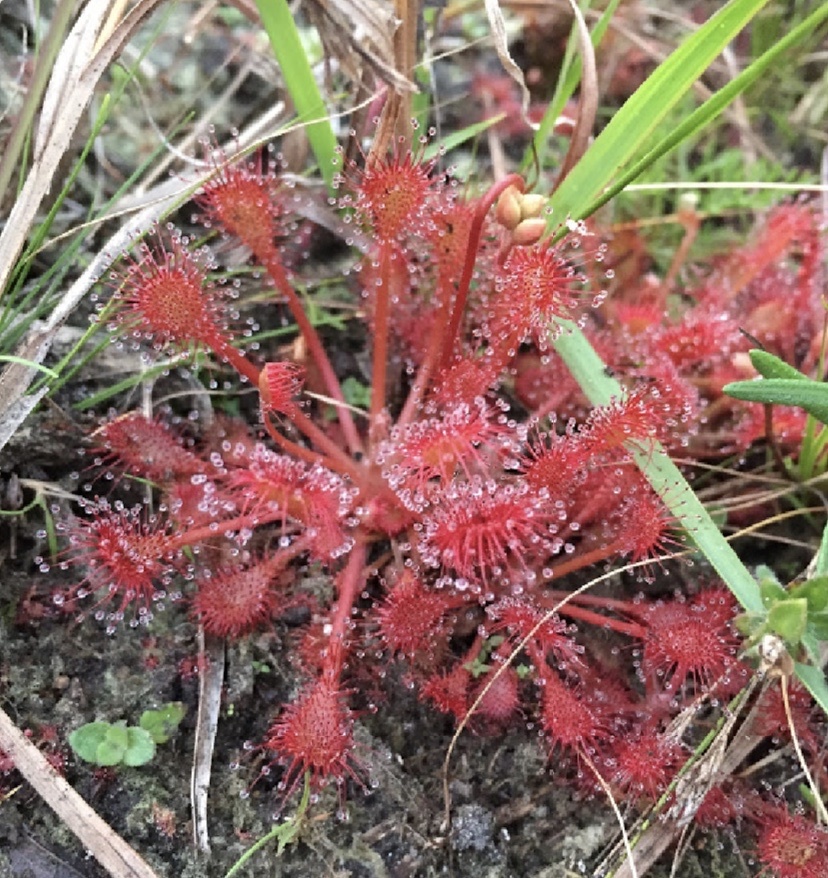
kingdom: Plantae
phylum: Tracheophyta
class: Magnoliopsida
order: Caryophyllales
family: Droseraceae
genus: Drosera
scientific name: Drosera capillaris
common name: Pink sundew
